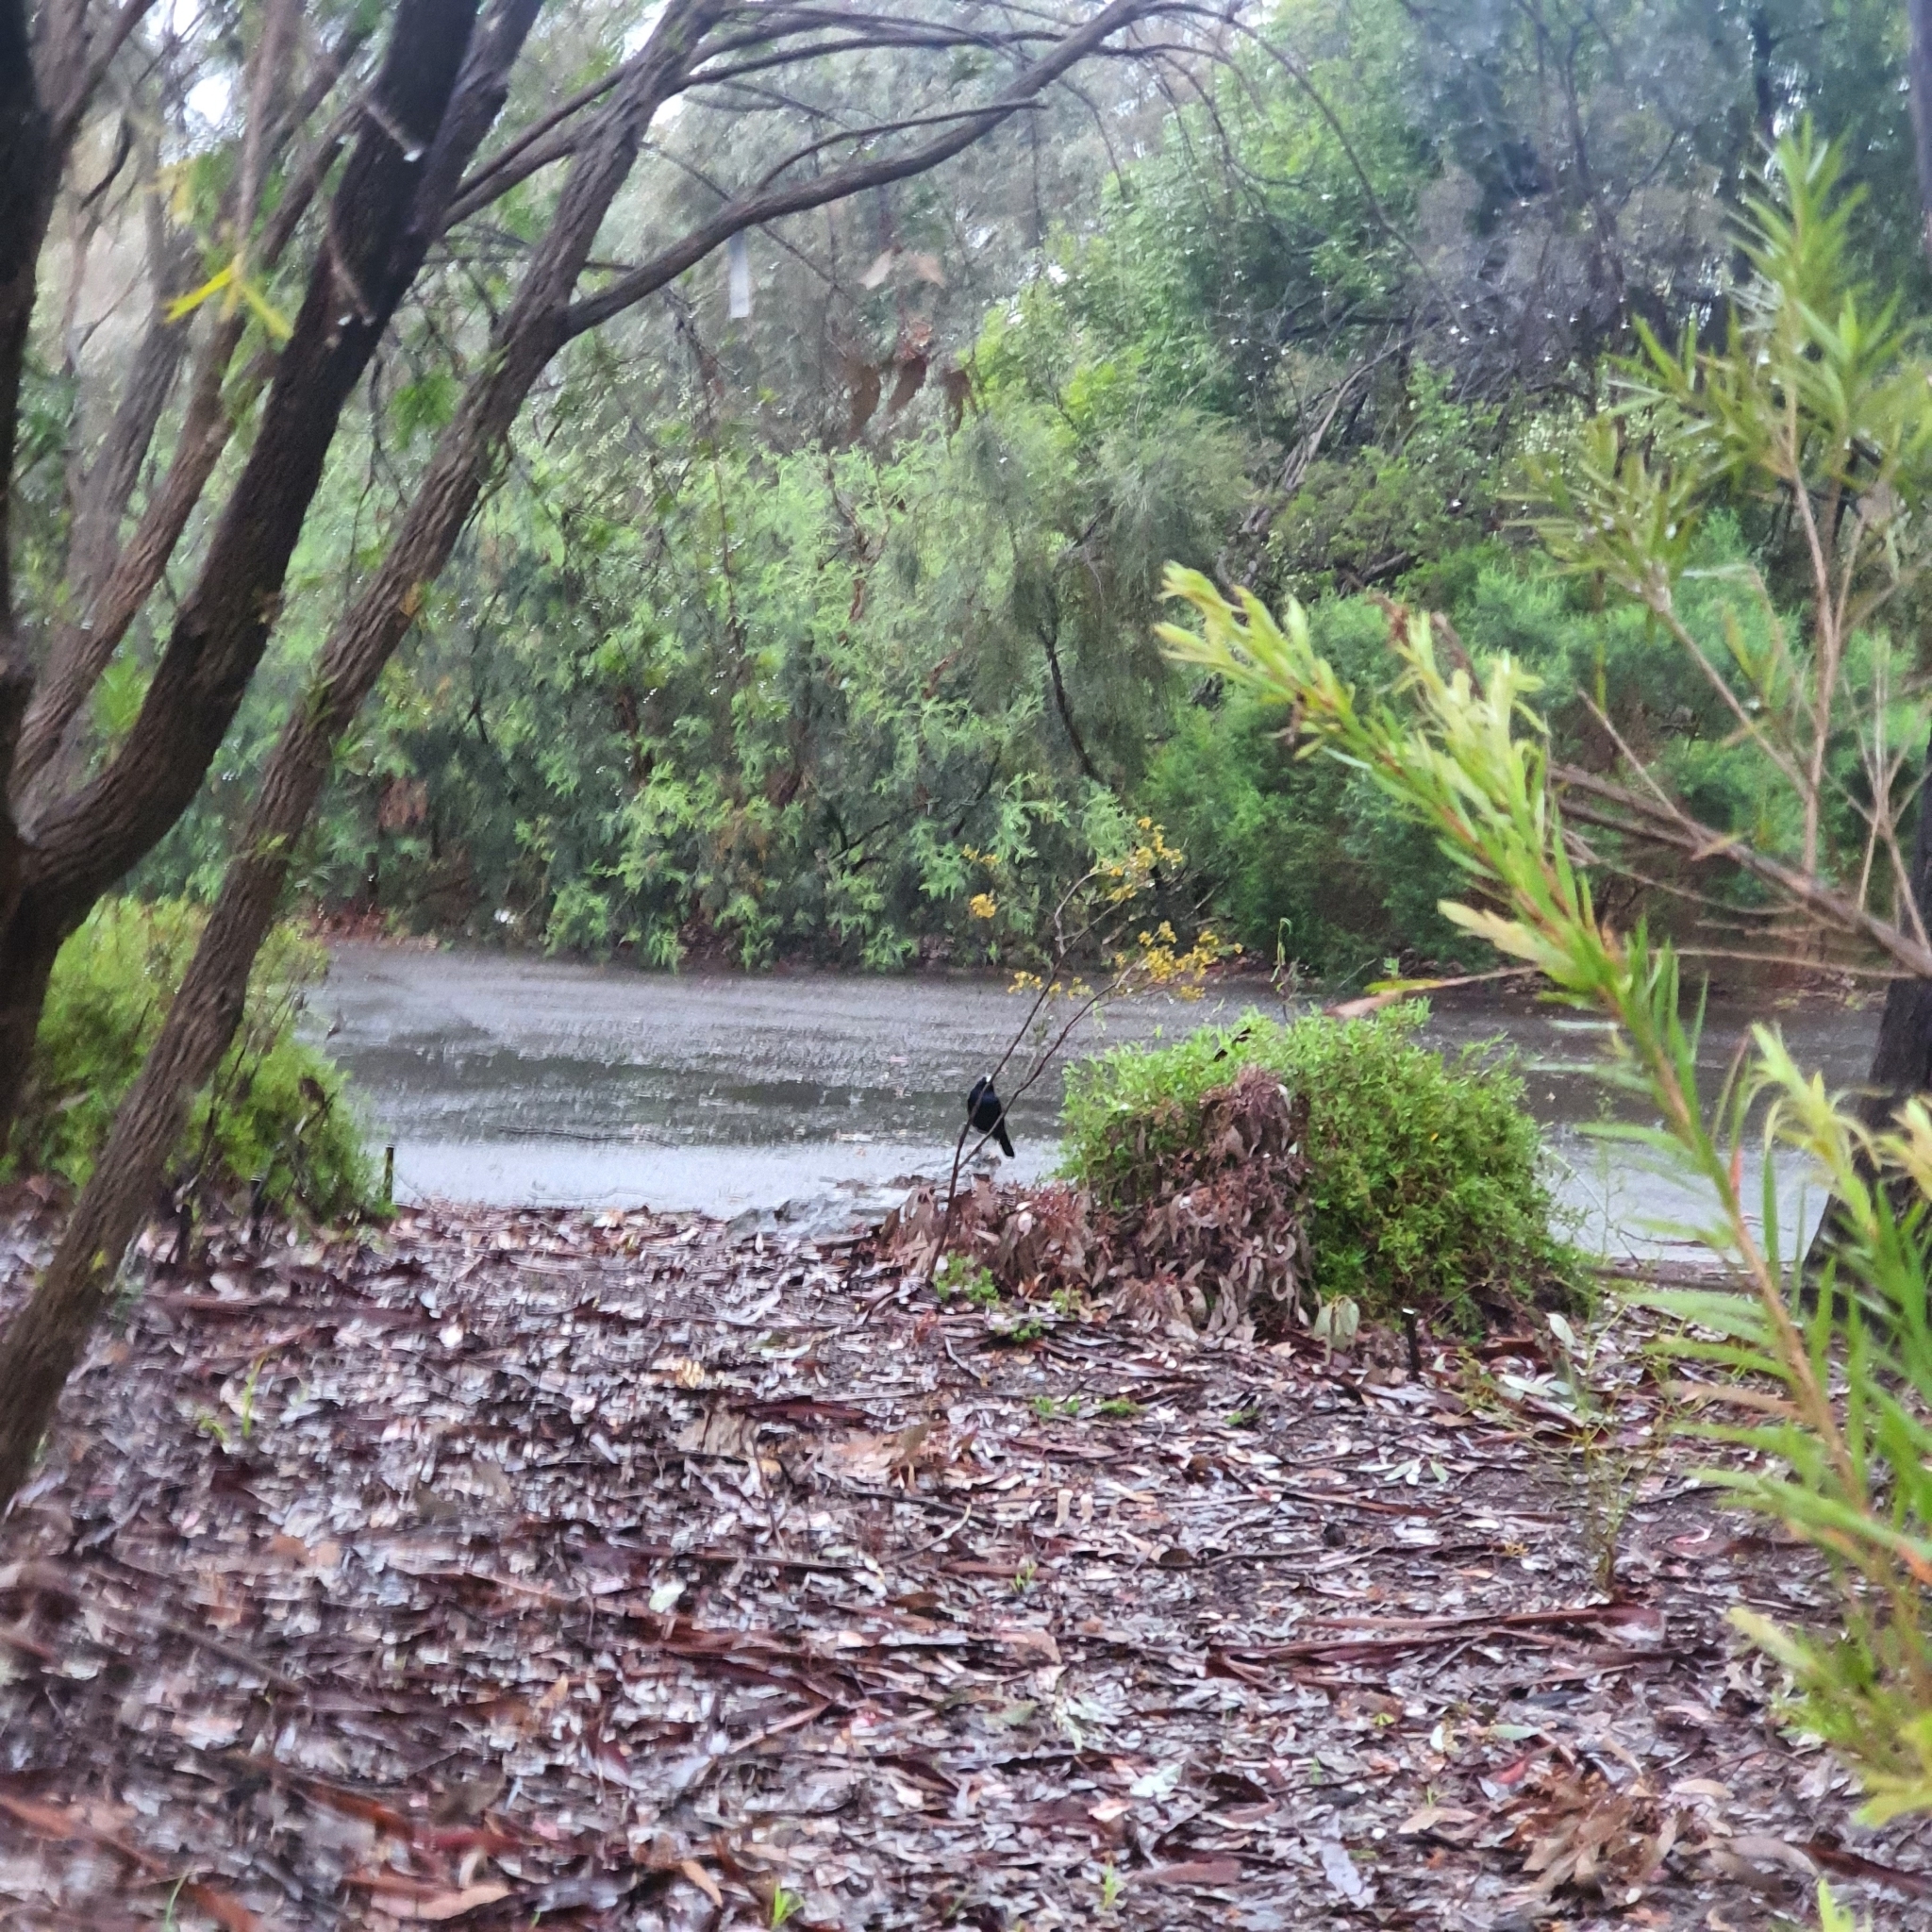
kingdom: Animalia
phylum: Chordata
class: Aves
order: Passeriformes
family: Ptilonorhynchidae
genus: Ptilonorhynchus
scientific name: Ptilonorhynchus violaceus
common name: Satin bowerbird
